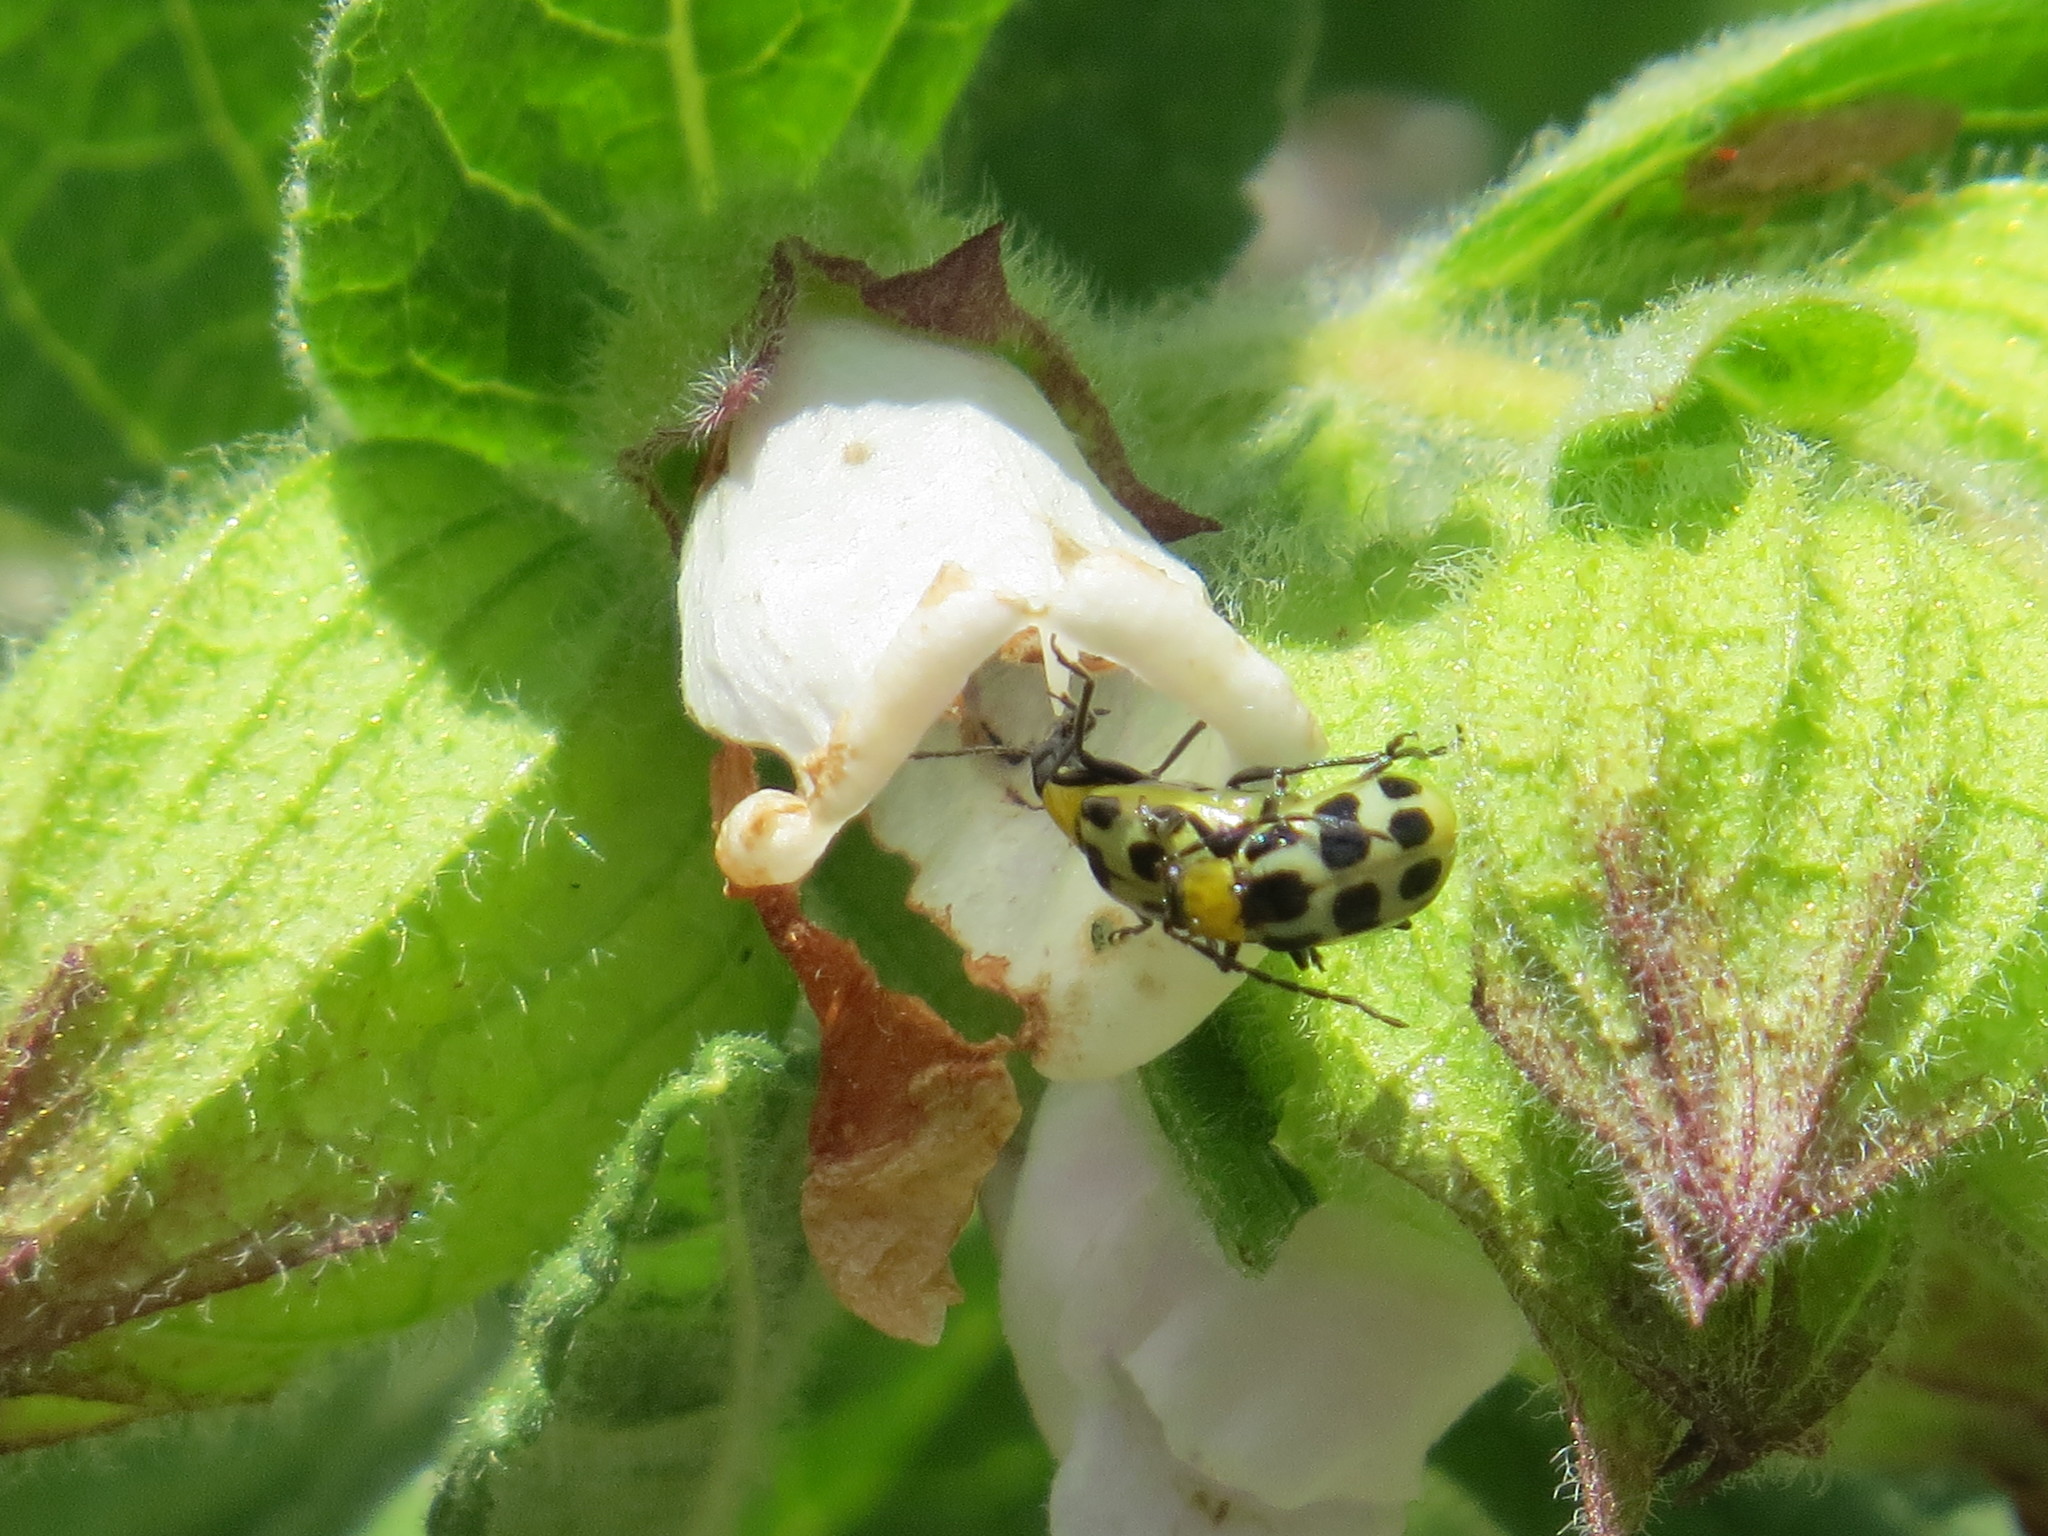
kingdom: Animalia
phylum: Arthropoda
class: Insecta
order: Coleoptera
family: Chrysomelidae
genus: Diabrotica
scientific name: Diabrotica undecimpunctata
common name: Spotted cucumber beetle
